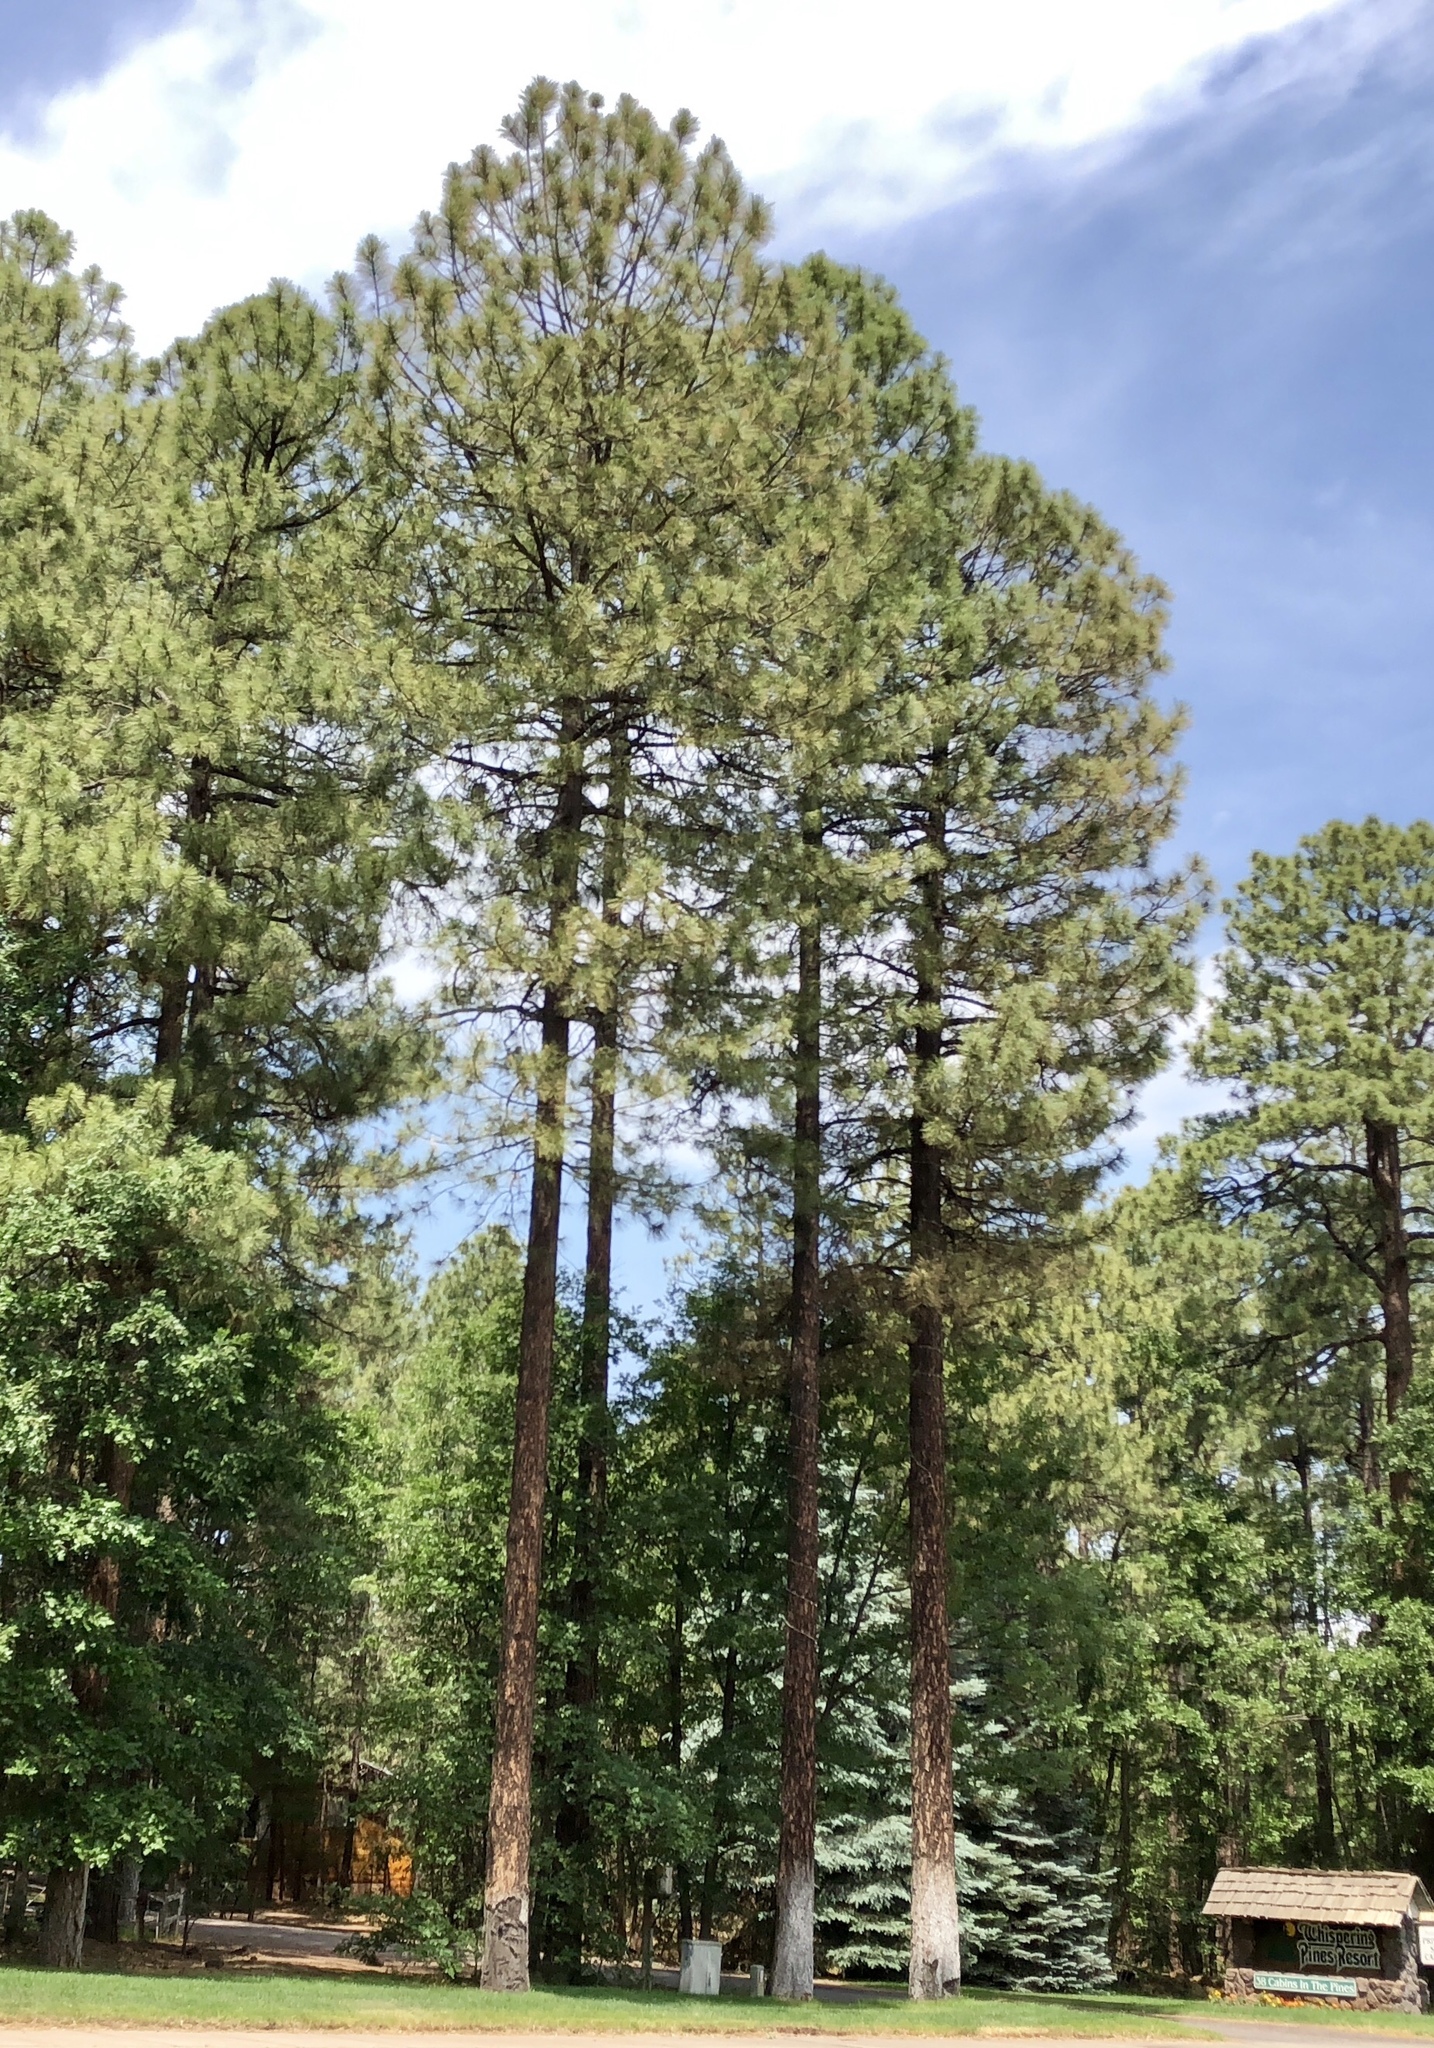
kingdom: Plantae
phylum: Tracheophyta
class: Pinopsida
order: Pinales
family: Pinaceae
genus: Pinus
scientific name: Pinus ponderosa
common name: Western yellow-pine
